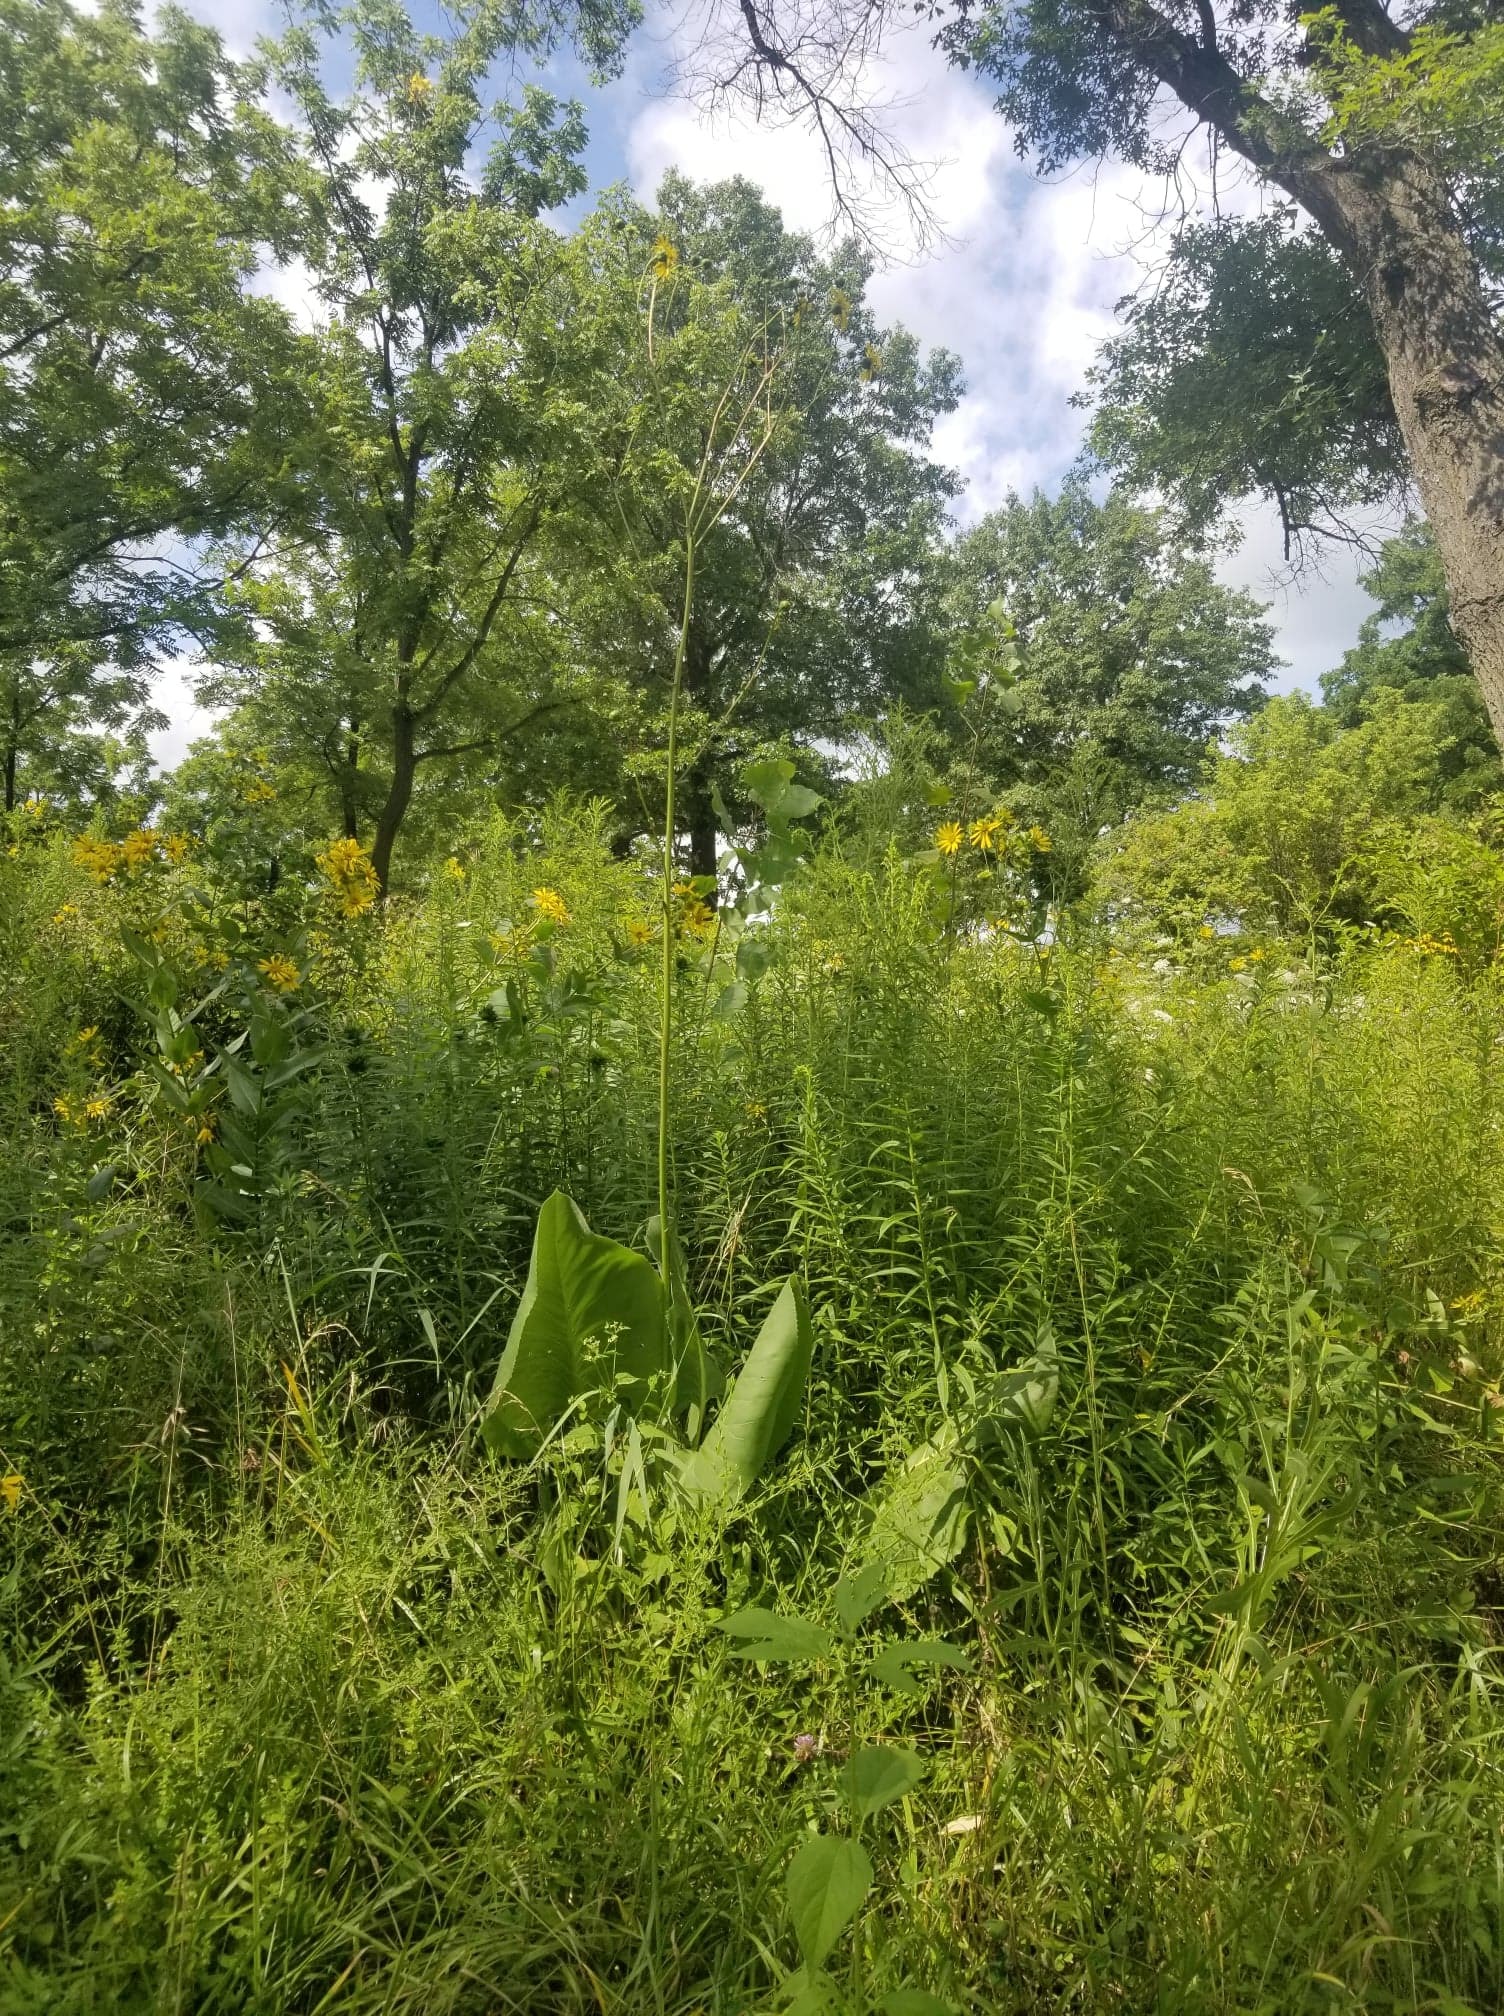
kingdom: Plantae
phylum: Tracheophyta
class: Magnoliopsida
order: Asterales
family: Asteraceae
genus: Silphium
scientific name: Silphium terebinthinaceum
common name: Basal-leaf rosinweed
